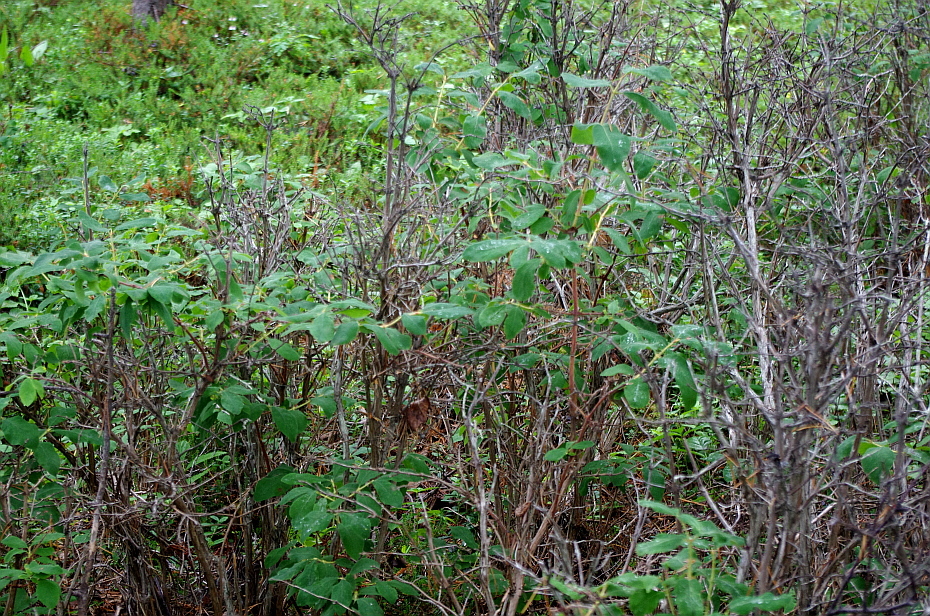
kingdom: Plantae
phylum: Tracheophyta
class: Magnoliopsida
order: Dipsacales
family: Caprifoliaceae
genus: Lonicera
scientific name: Lonicera caerulea
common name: Blue honeysuckle
